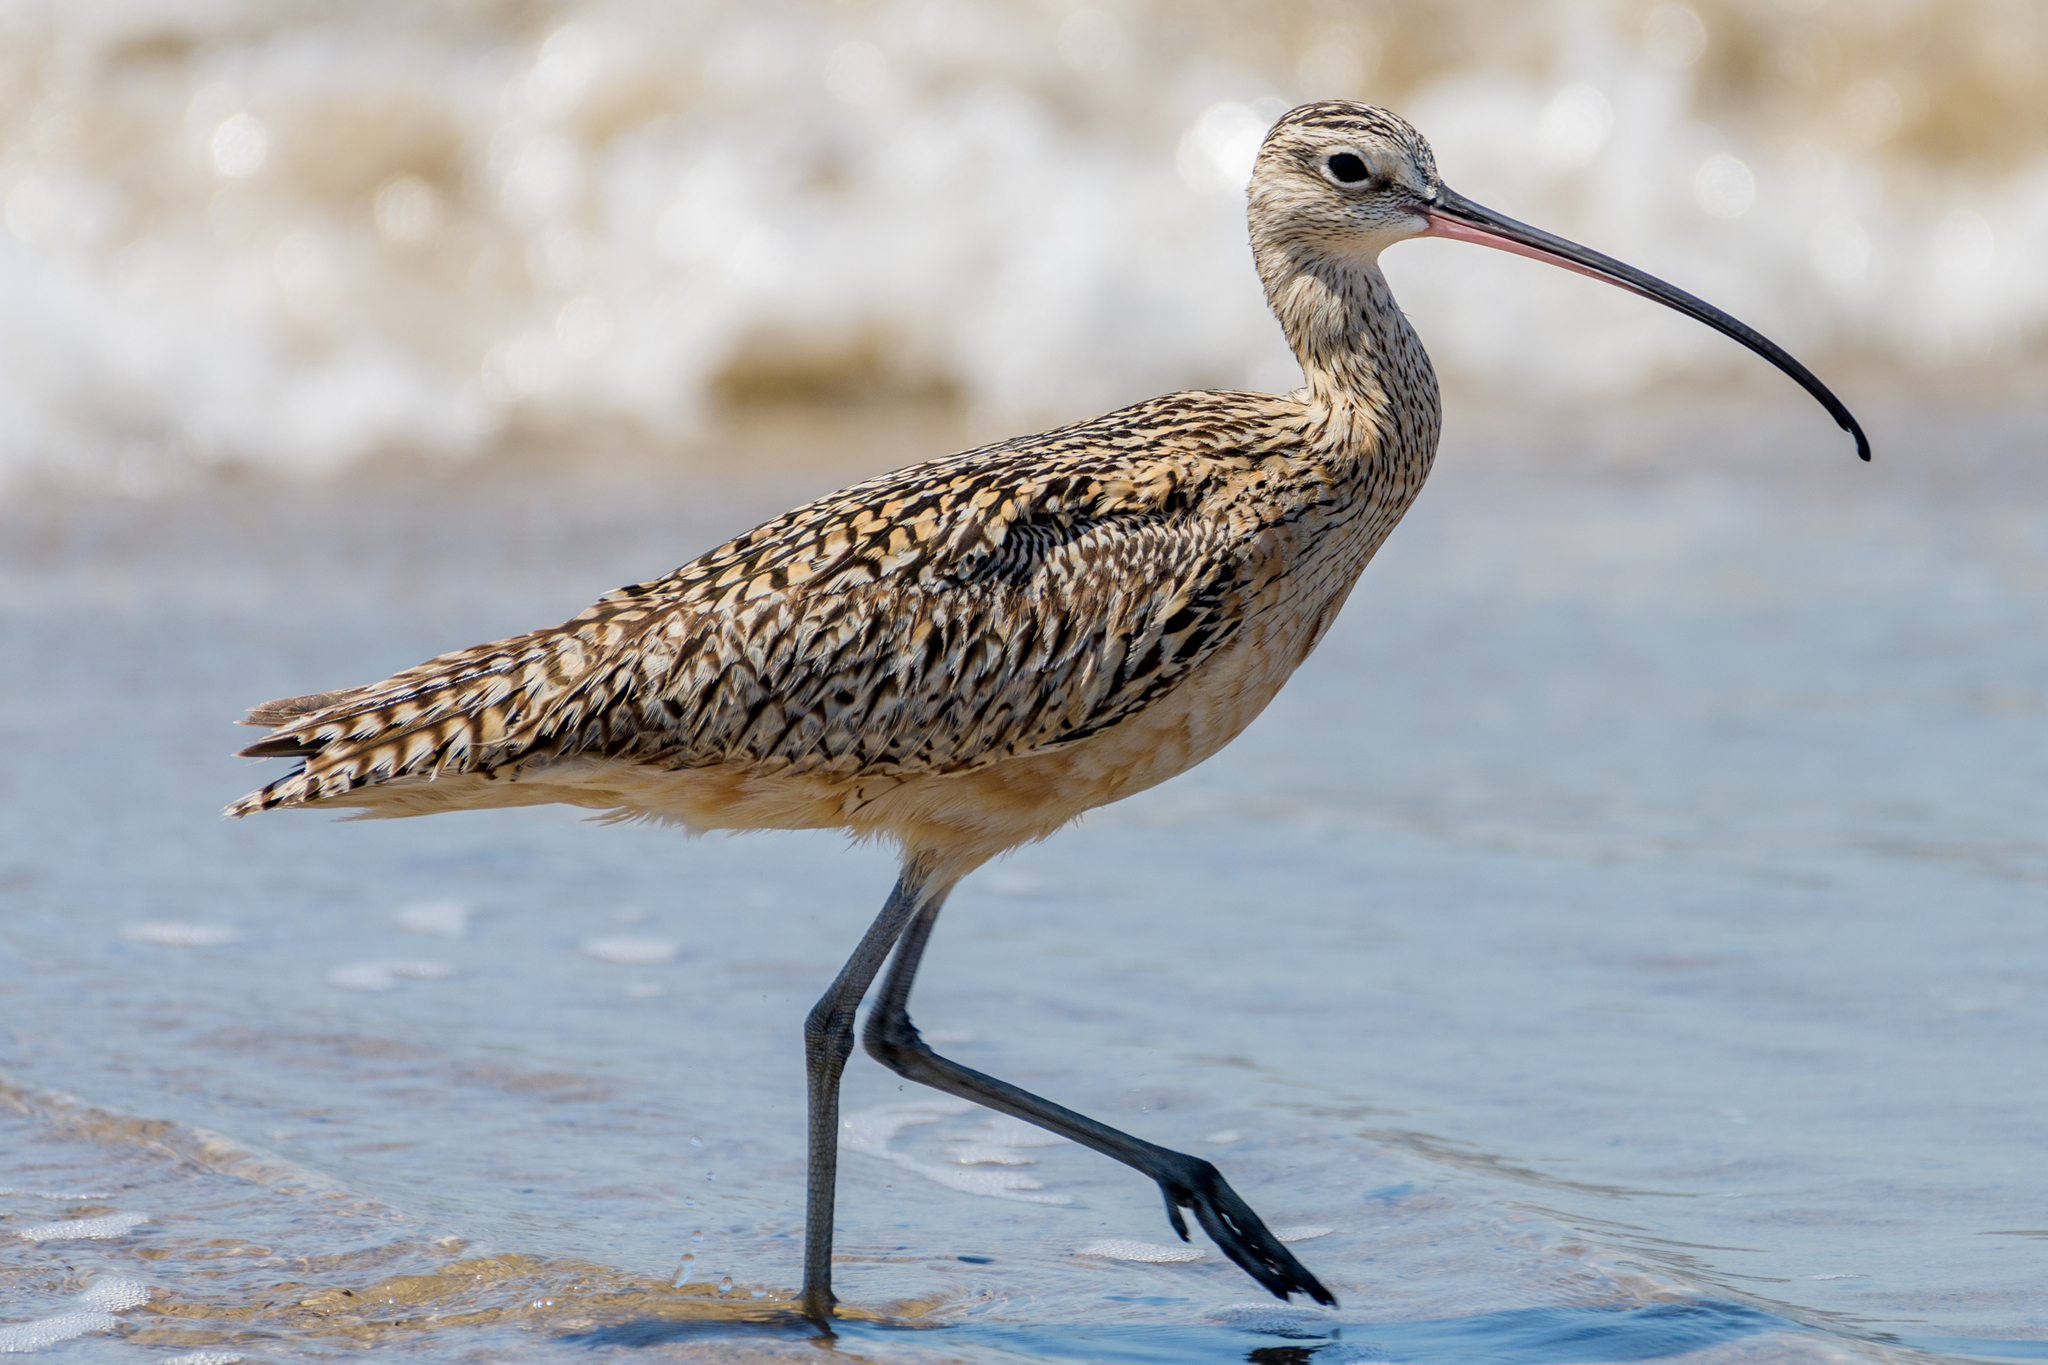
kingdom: Animalia
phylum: Chordata
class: Aves
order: Charadriiformes
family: Scolopacidae
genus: Numenius
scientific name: Numenius americanus
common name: Long-billed curlew
